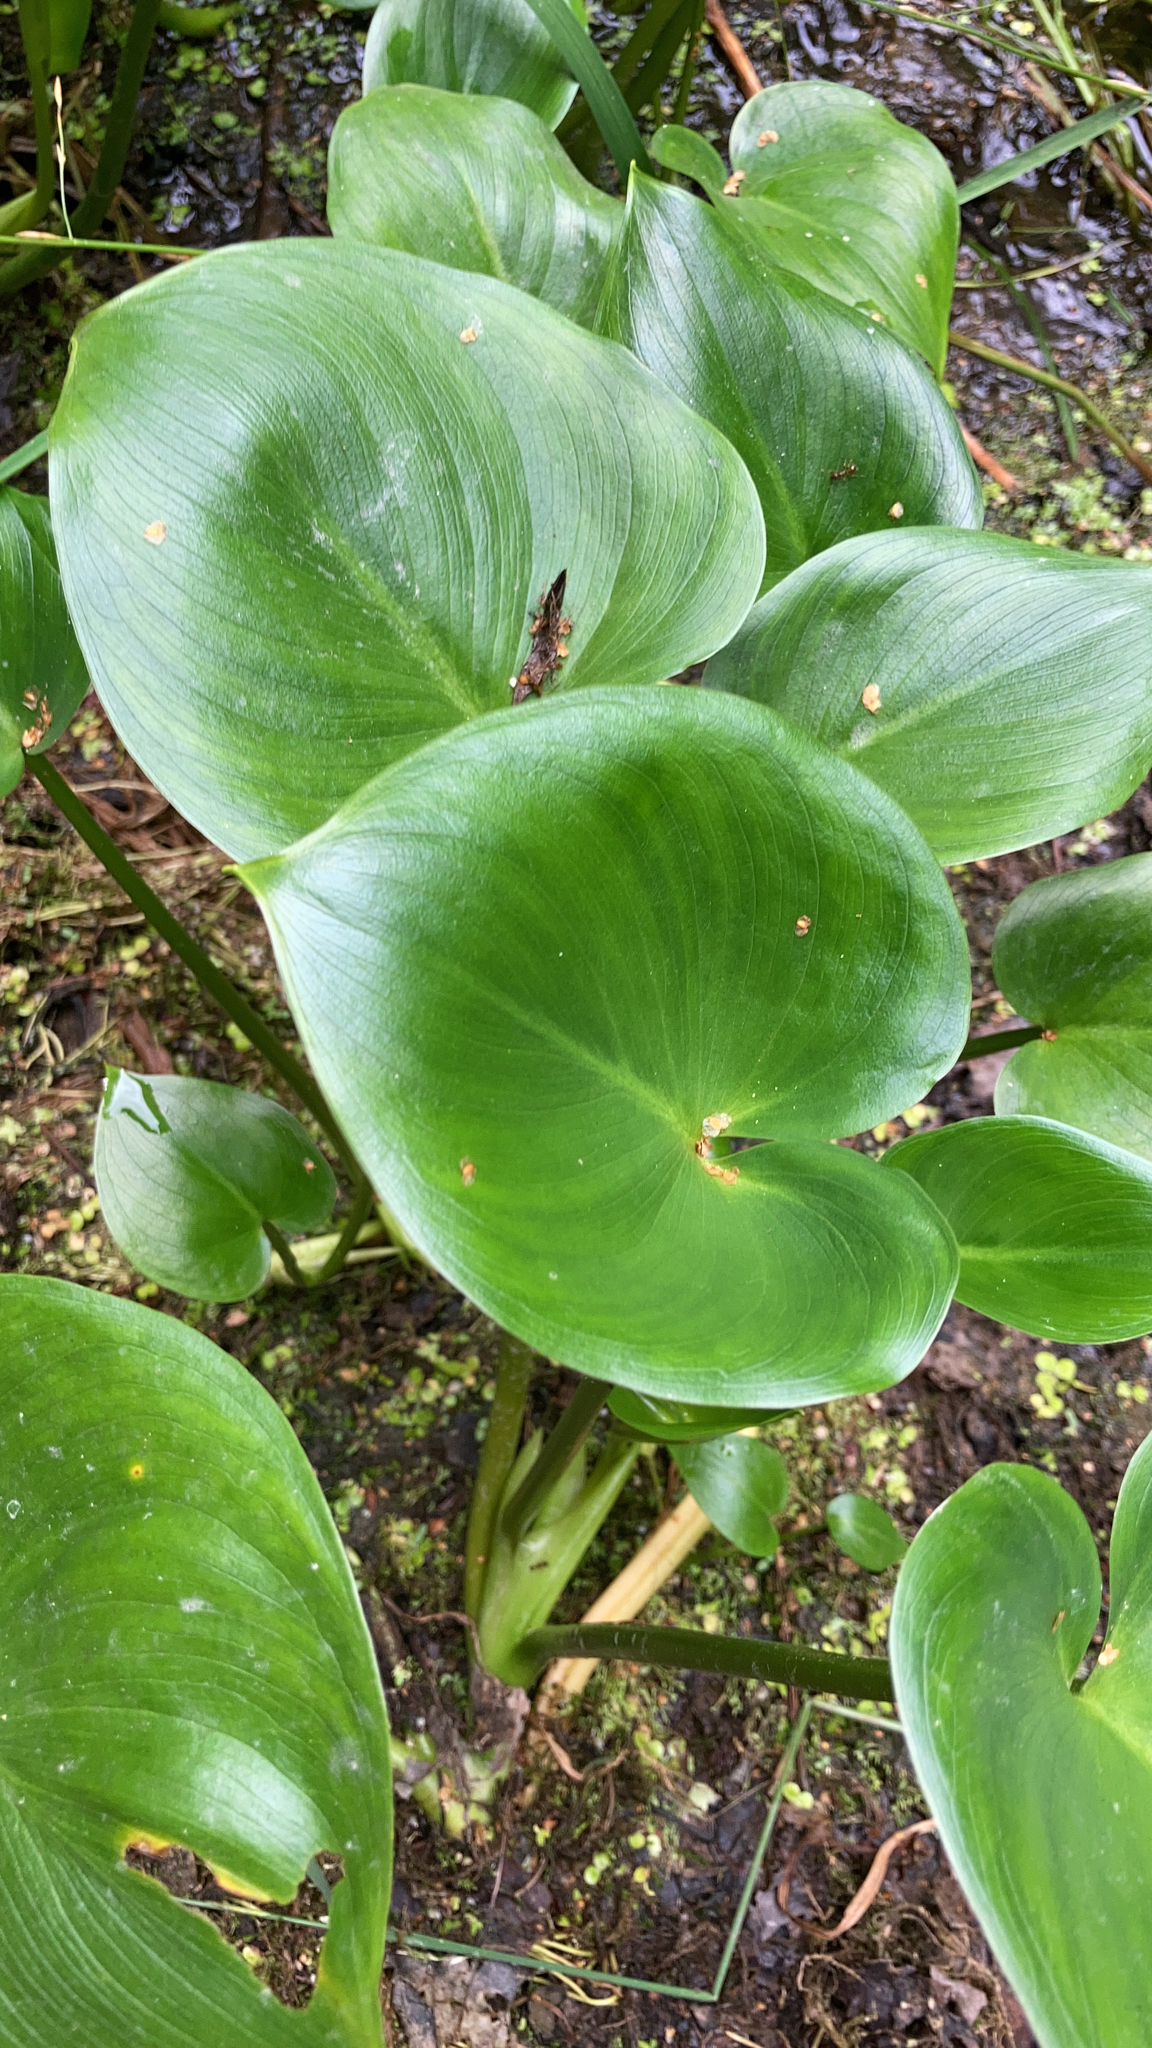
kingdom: Plantae
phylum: Tracheophyta
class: Liliopsida
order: Alismatales
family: Araceae
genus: Calla
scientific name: Calla palustris
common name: Bog arum
